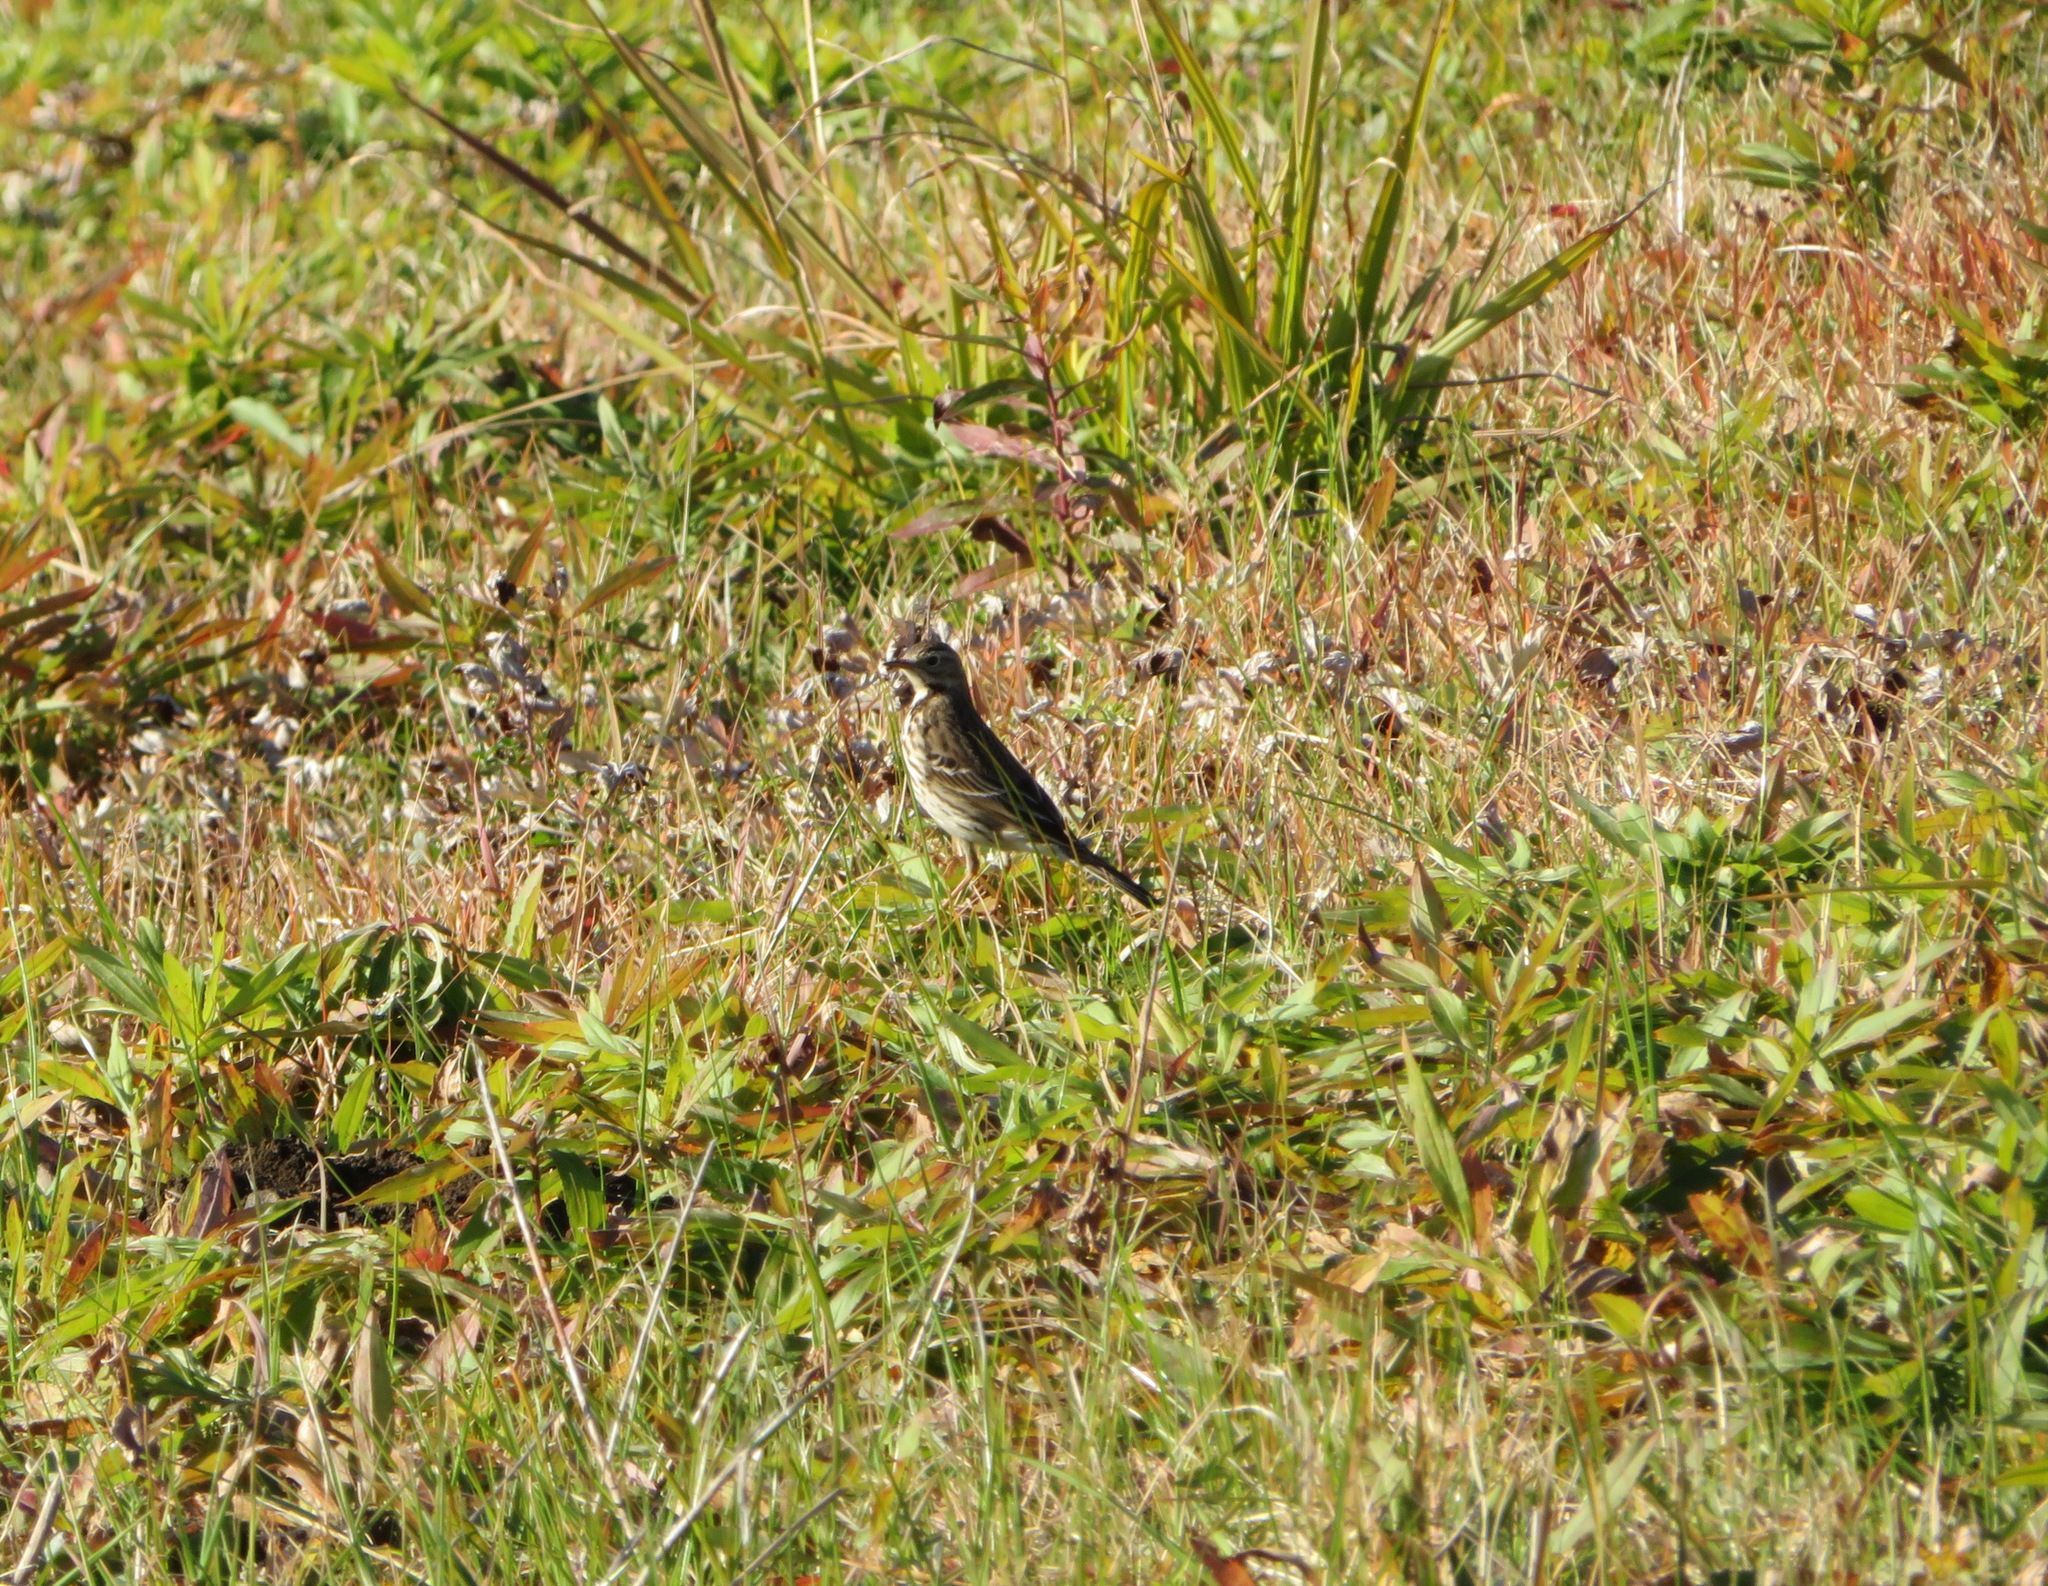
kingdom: Animalia
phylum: Chordata
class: Aves
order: Passeriformes
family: Motacillidae
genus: Anthus
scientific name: Anthus rubescens
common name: Buff-bellied pipit
